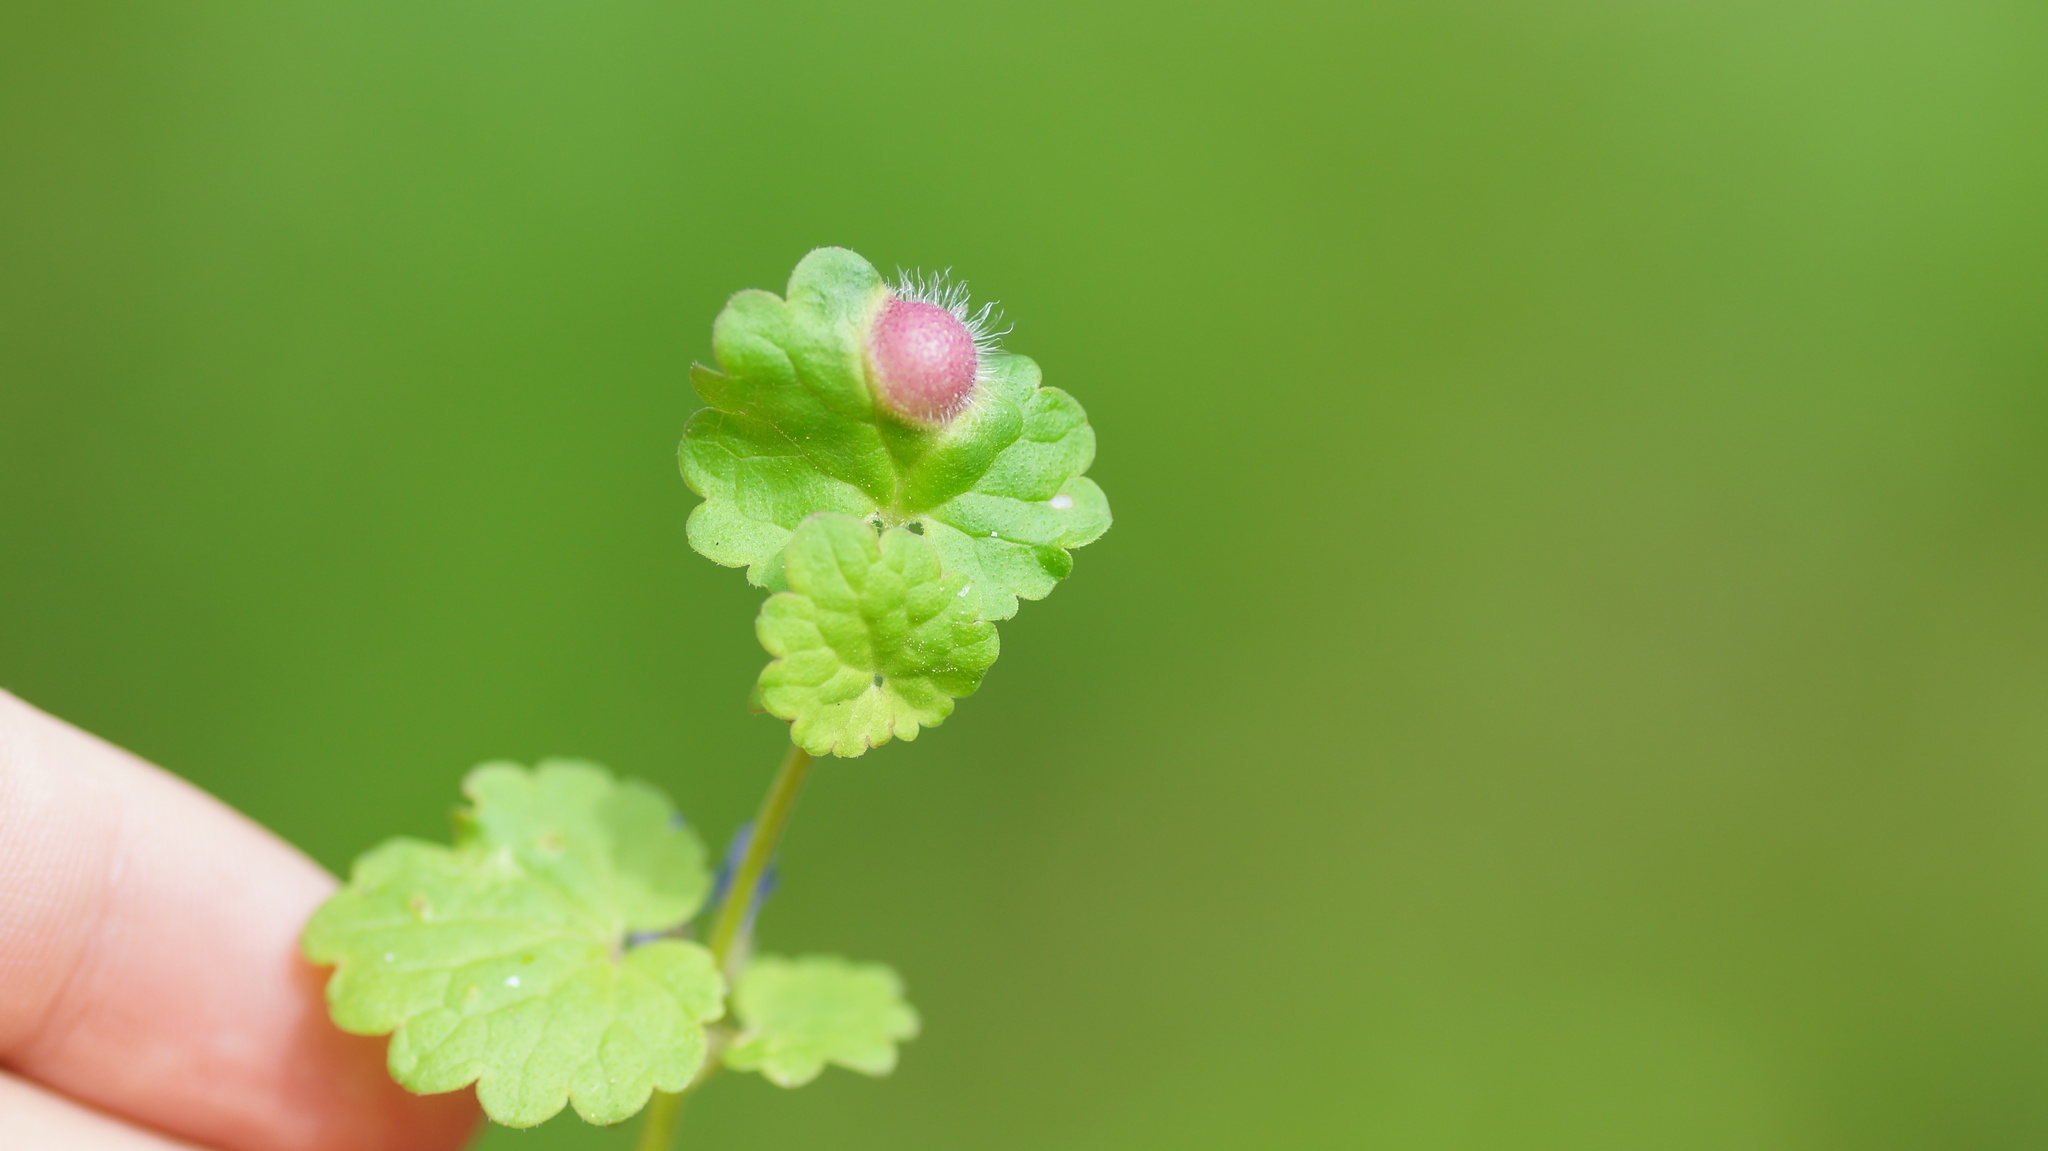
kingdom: Animalia
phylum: Arthropoda
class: Insecta
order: Hymenoptera
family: Cynipidae
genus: Liposthenes
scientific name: Liposthenes glechomae
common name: Gall wasp
